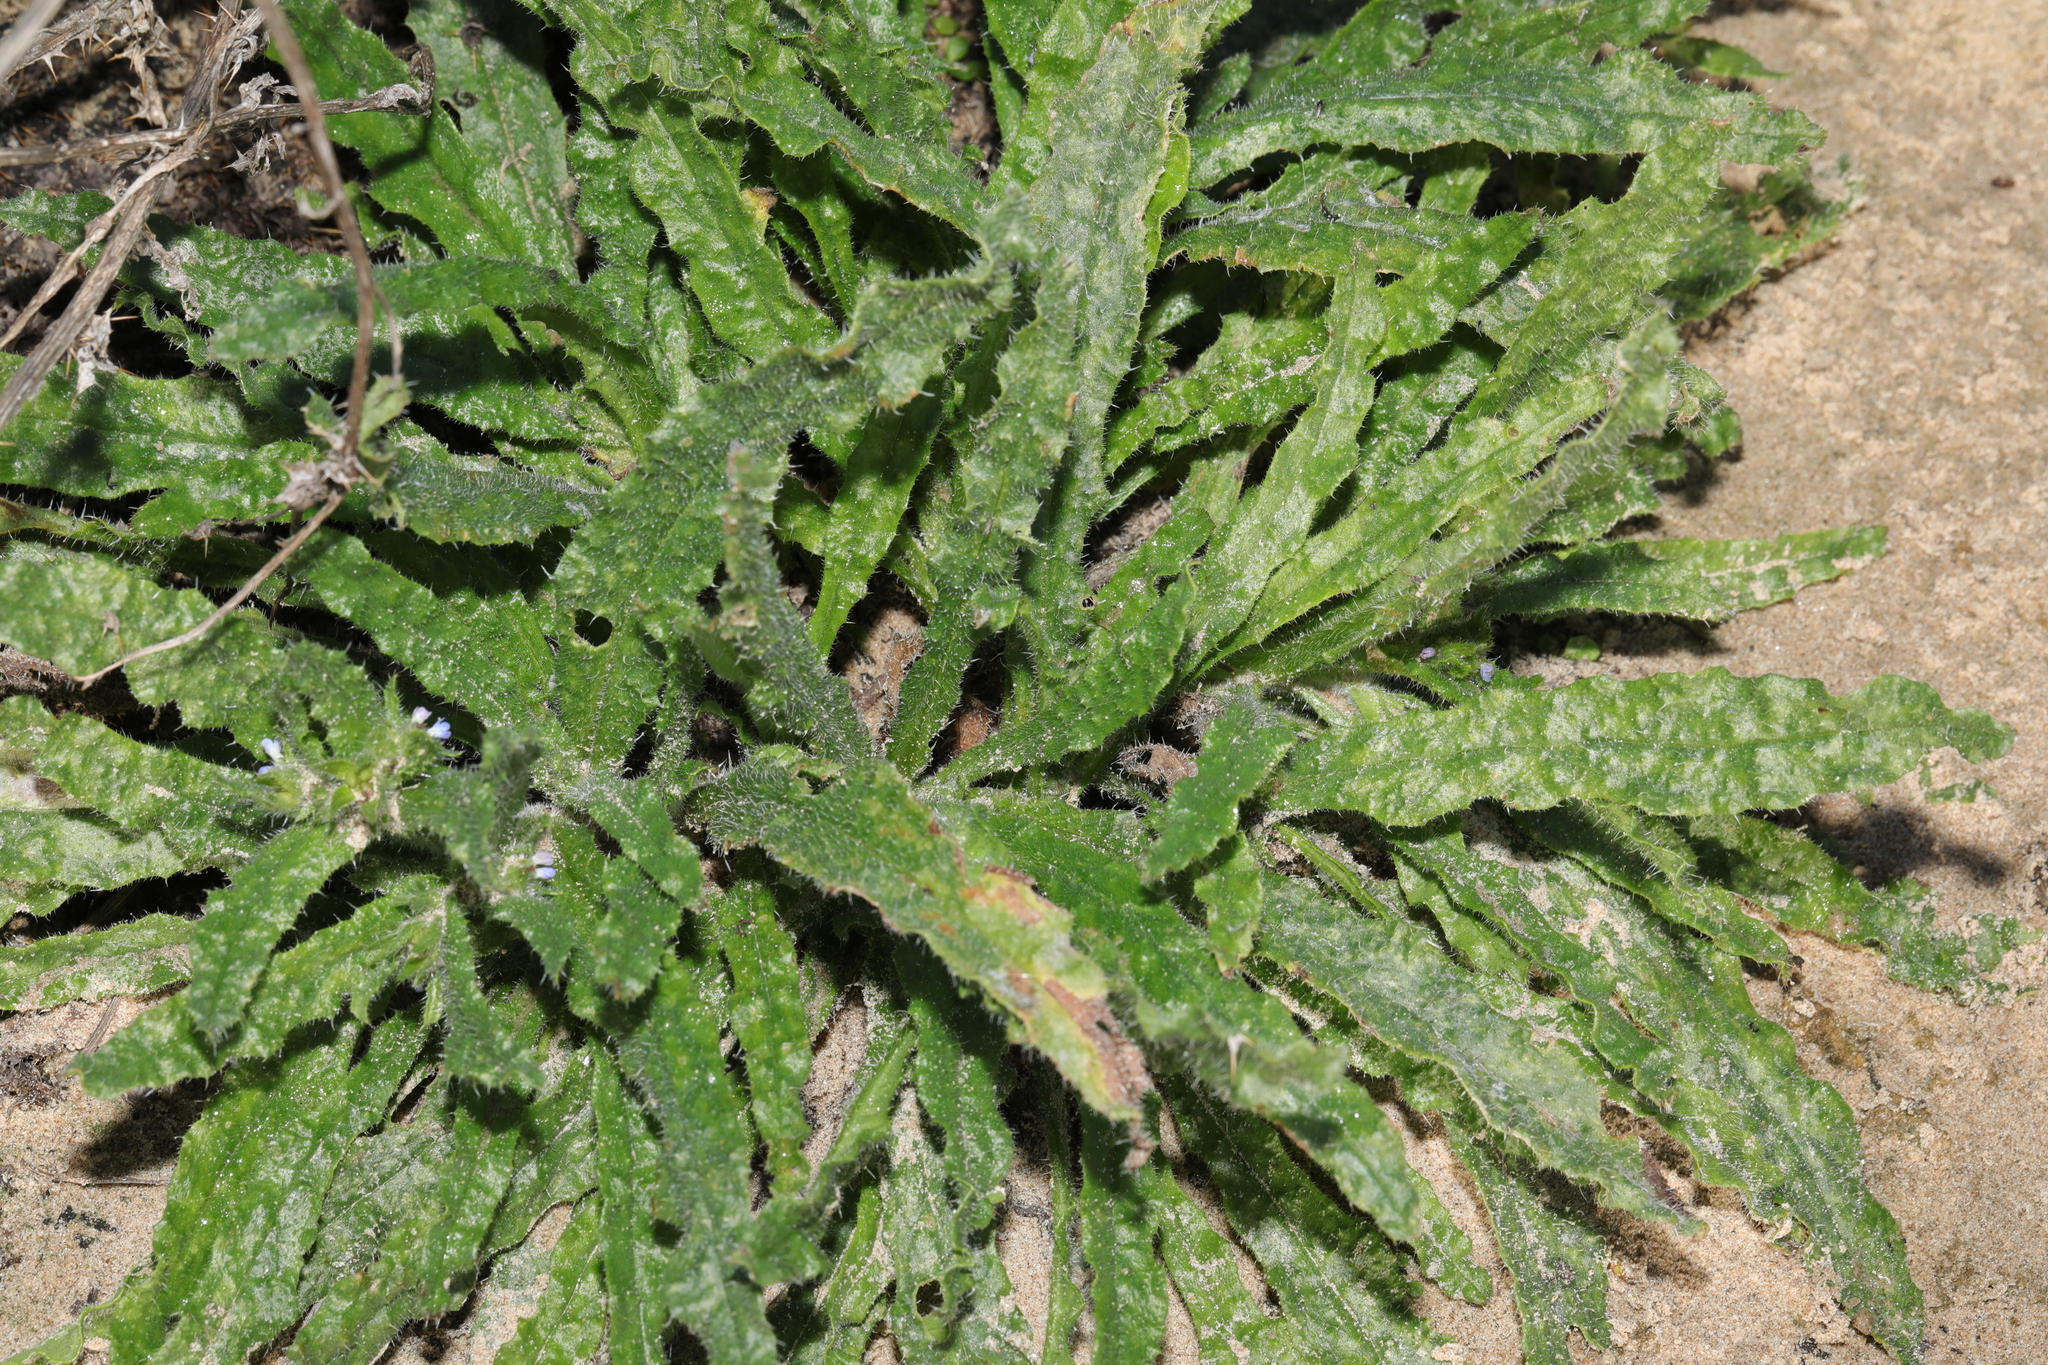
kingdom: Plantae
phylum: Tracheophyta
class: Magnoliopsida
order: Boraginales
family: Boraginaceae
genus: Lycopsis
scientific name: Lycopsis arvensis
